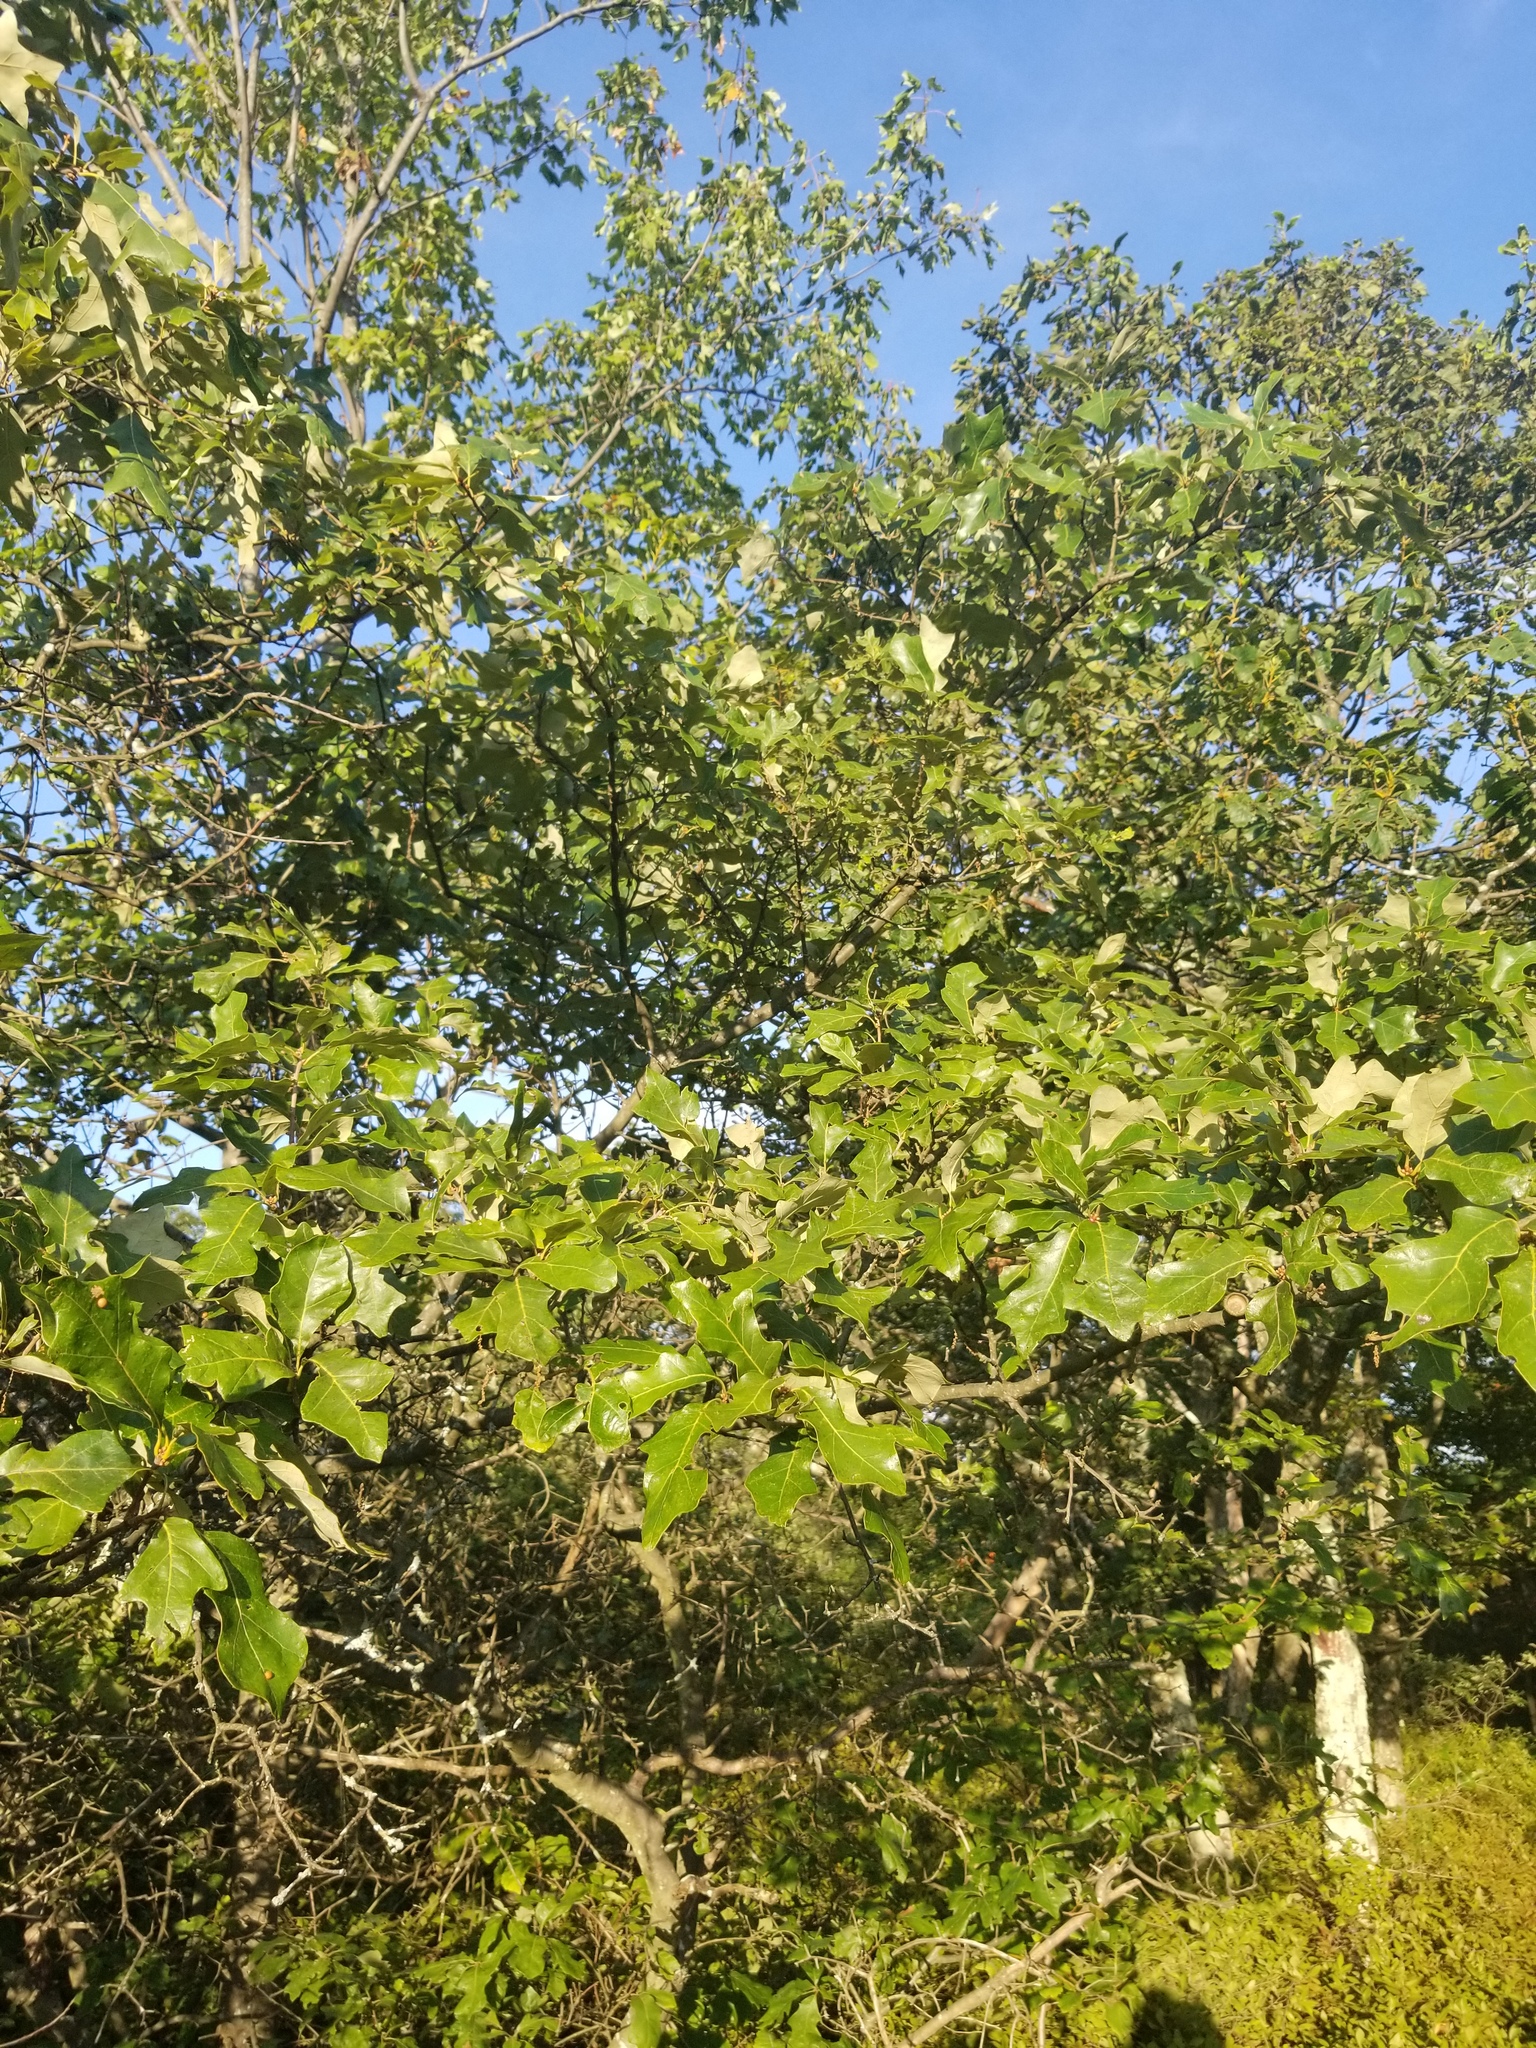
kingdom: Plantae
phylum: Tracheophyta
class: Magnoliopsida
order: Fagales
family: Fagaceae
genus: Quercus
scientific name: Quercus ilicifolia
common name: Bear oak
